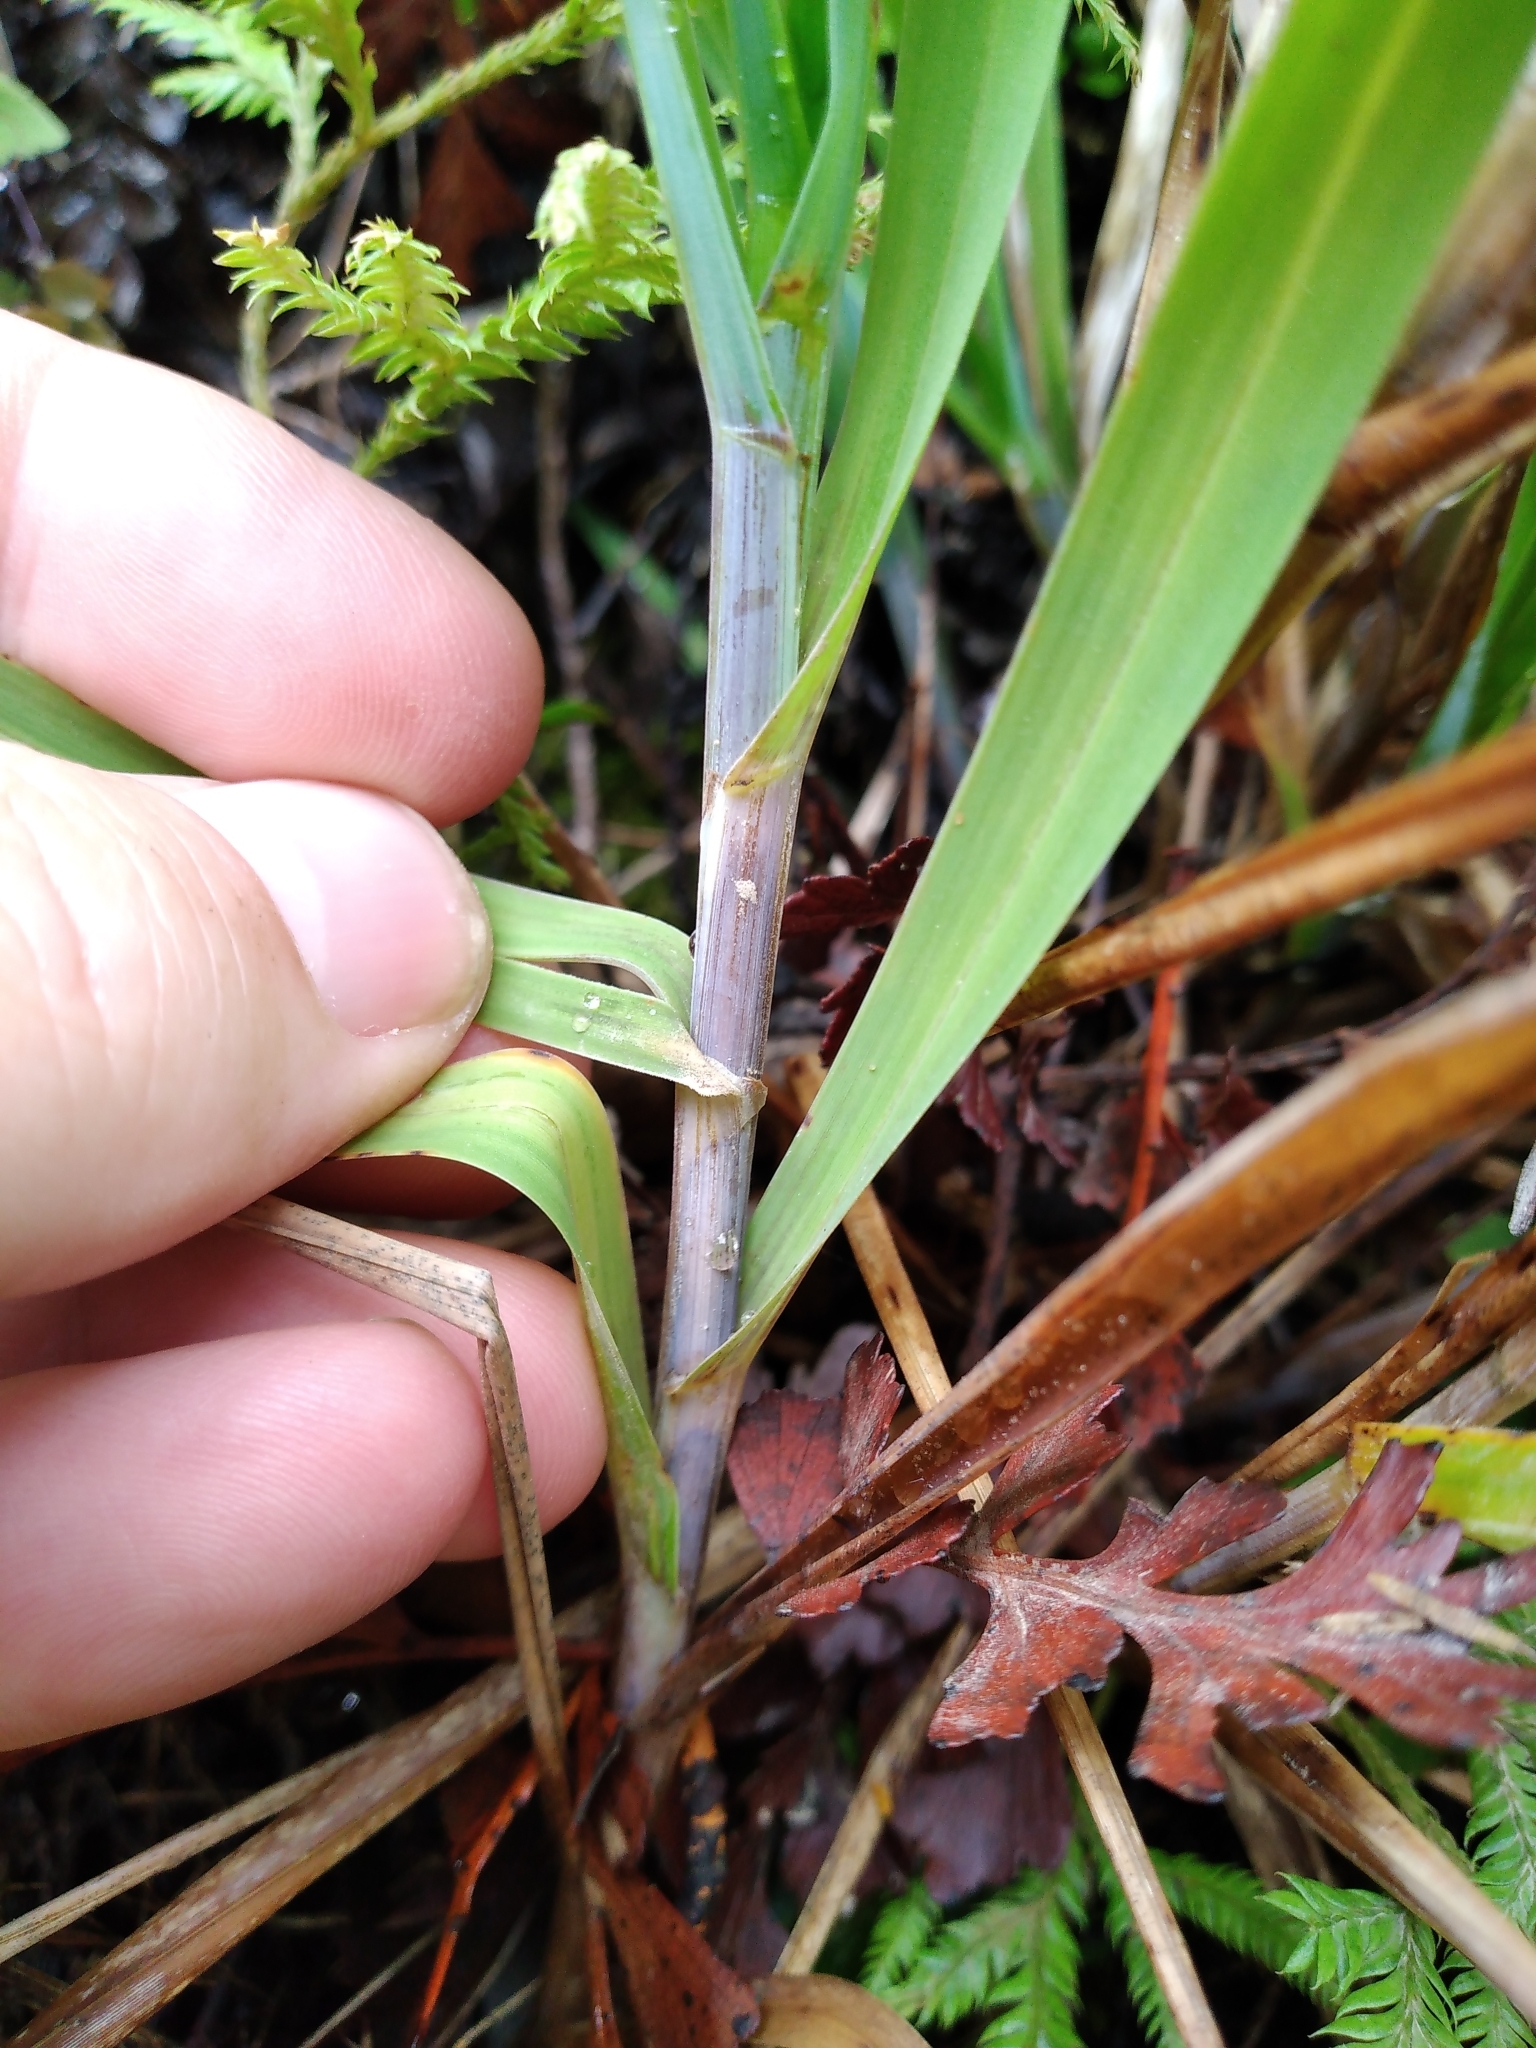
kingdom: Plantae
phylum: Tracheophyta
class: Liliopsida
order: Poales
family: Poaceae
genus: Poa
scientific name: Poa anceps
